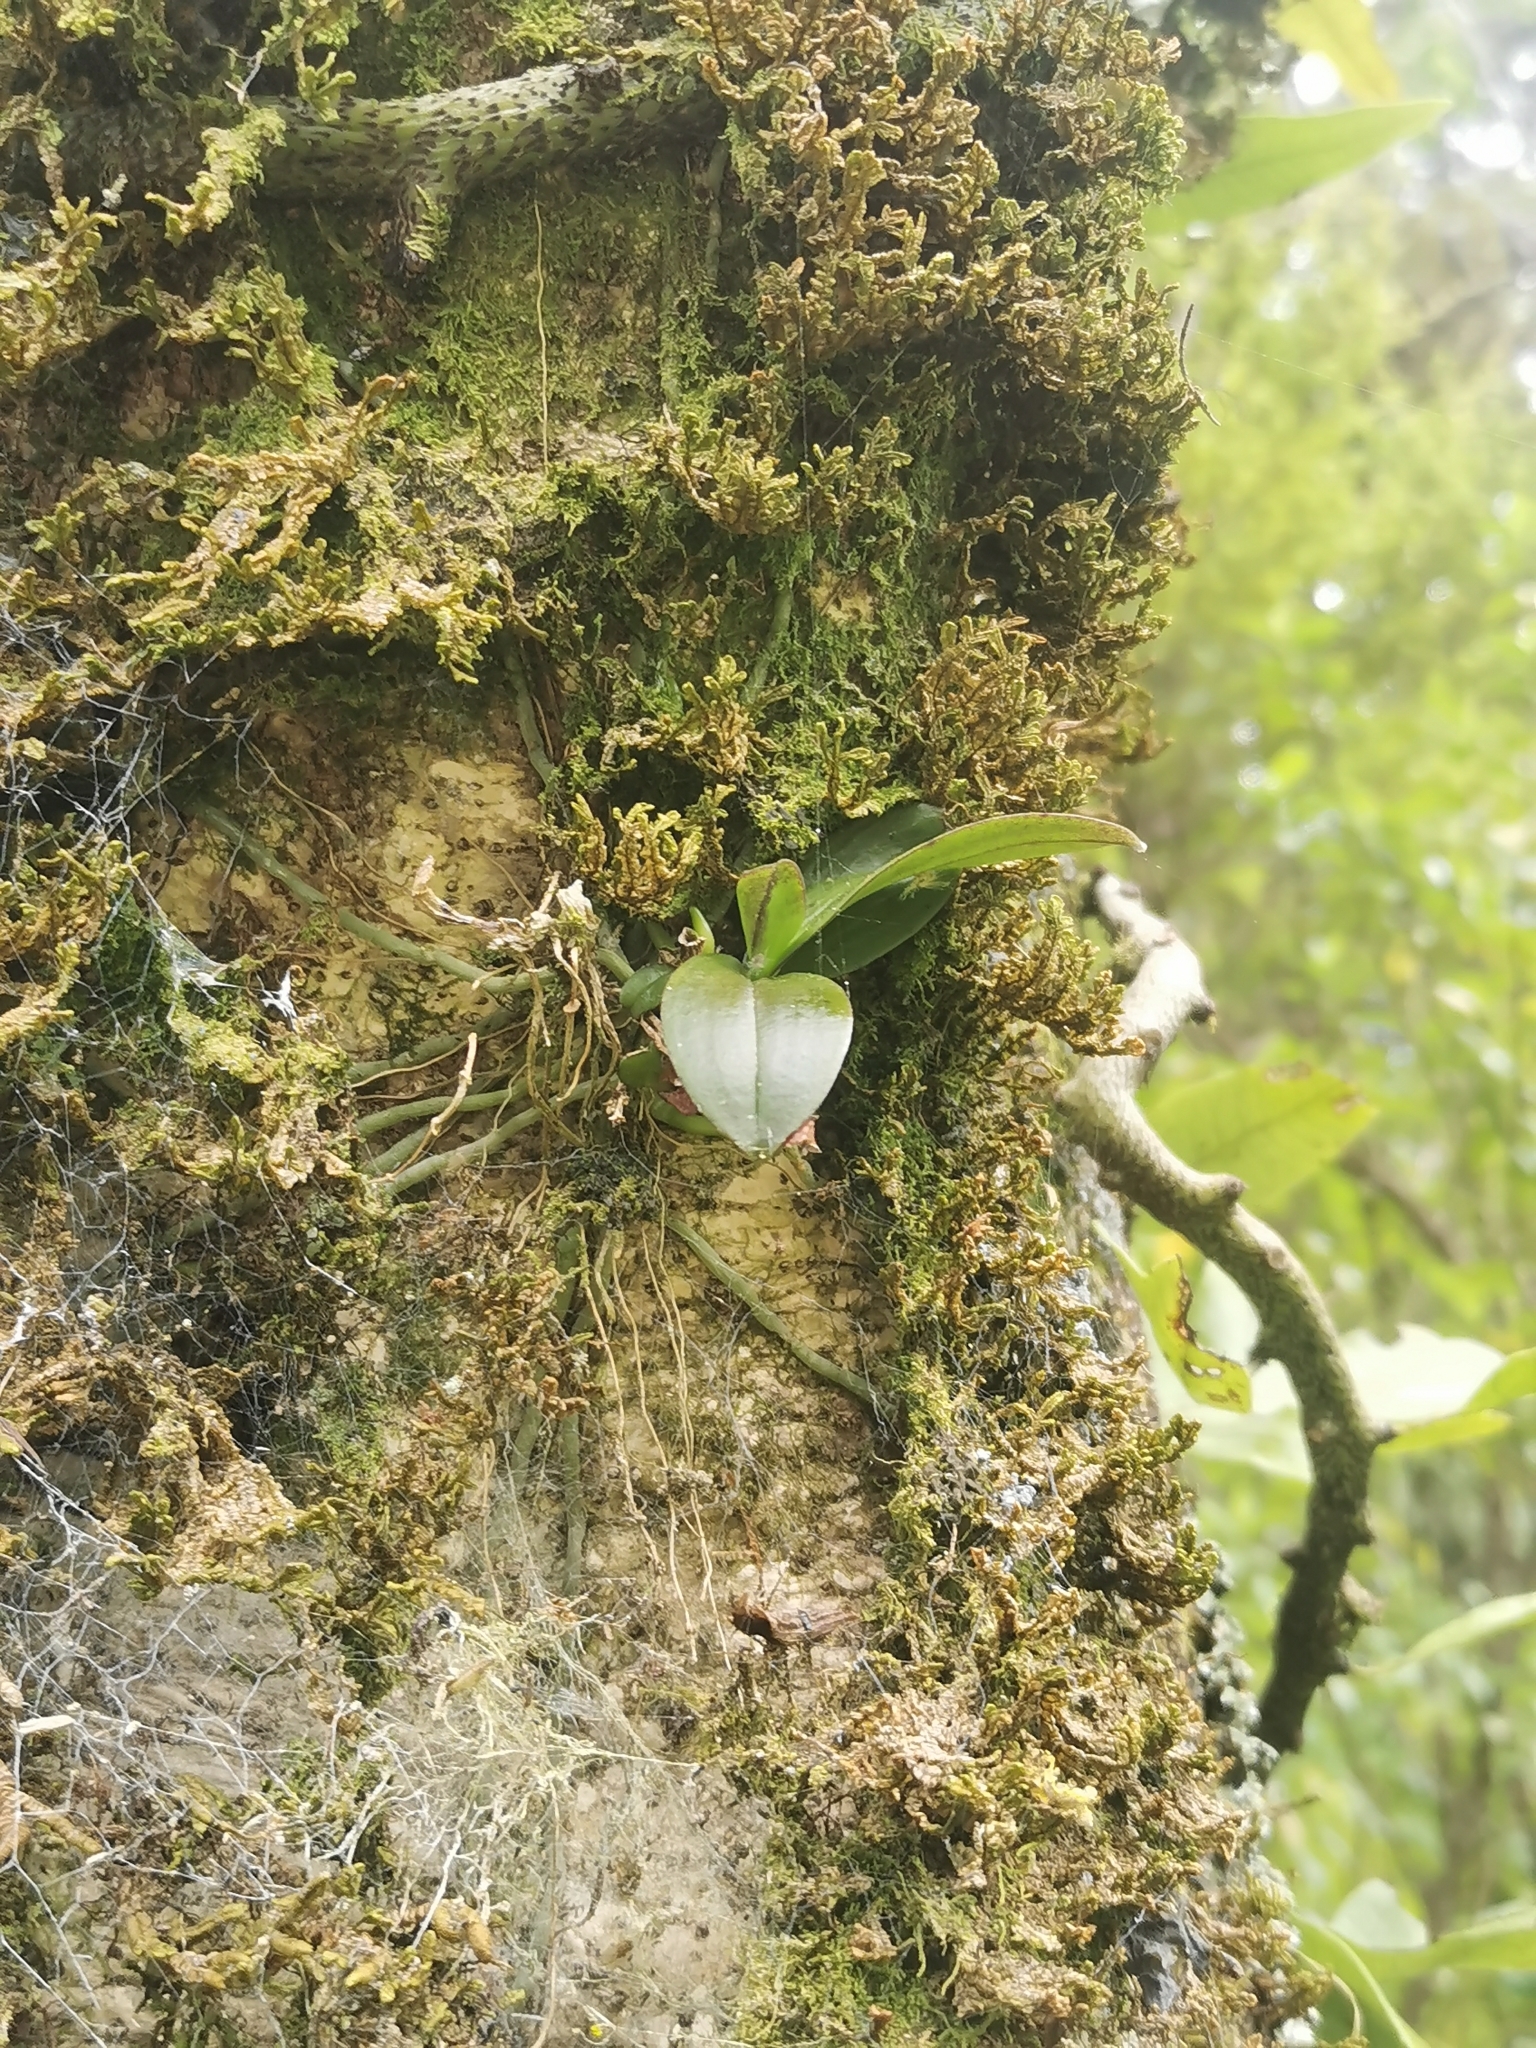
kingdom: Plantae
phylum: Tracheophyta
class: Liliopsida
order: Asparagales
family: Orchidaceae
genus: Drymoanthus
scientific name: Drymoanthus adversus
